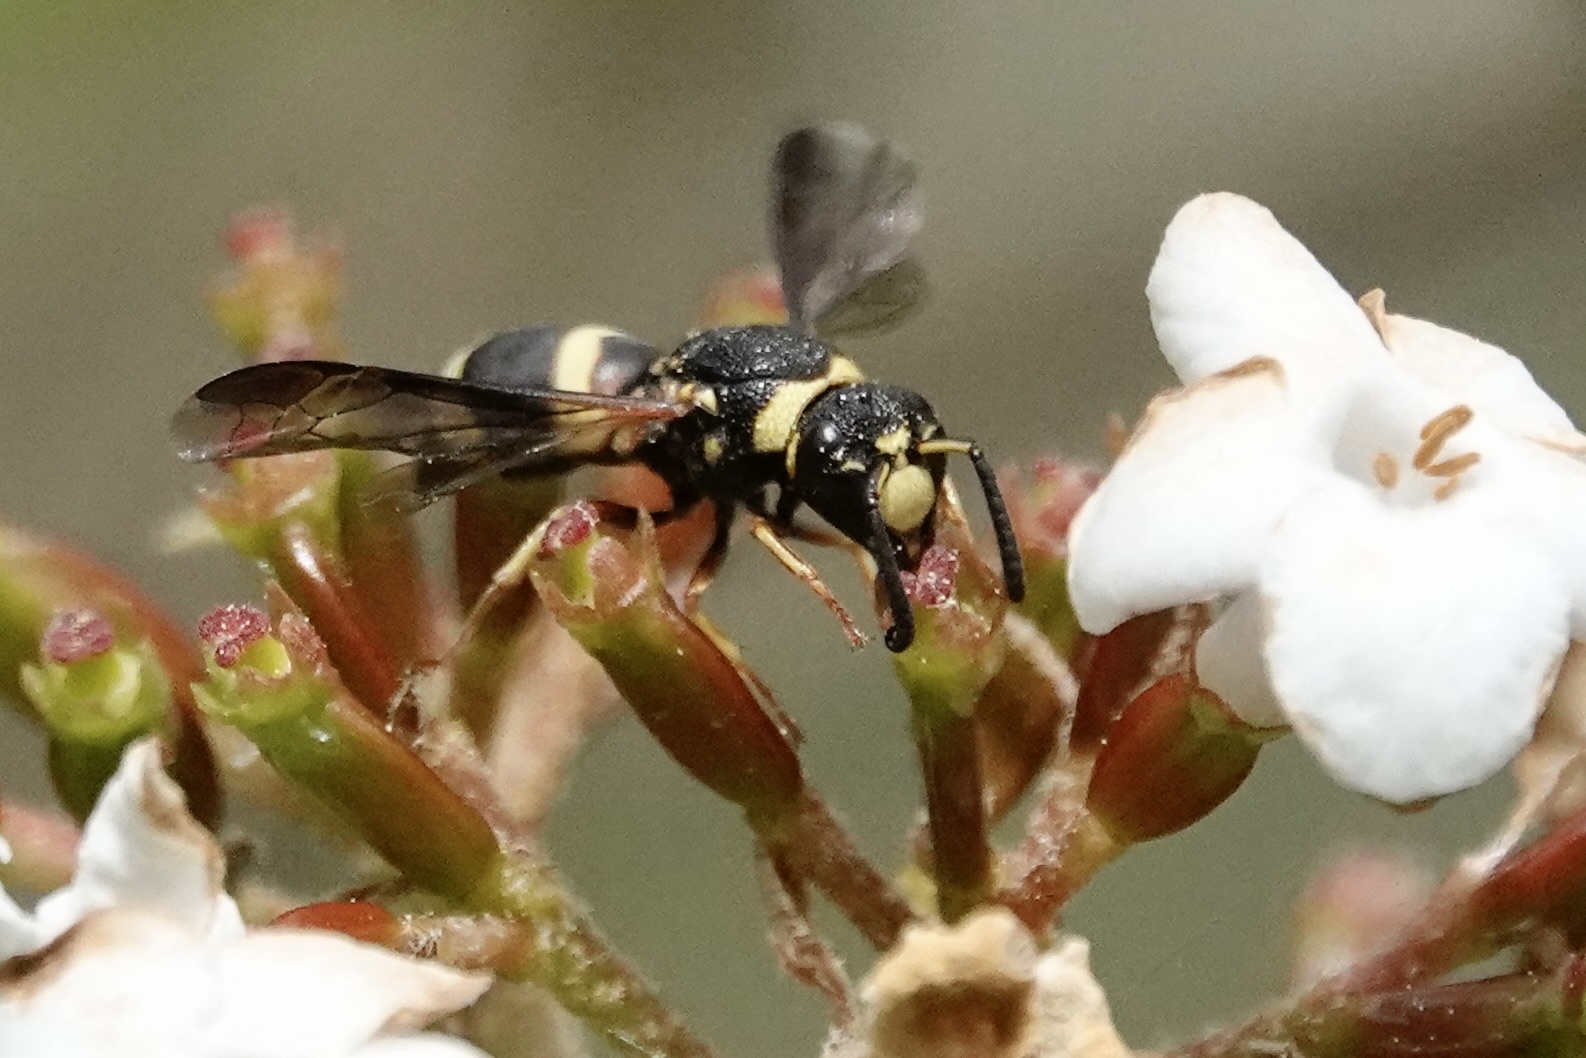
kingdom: Animalia
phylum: Arthropoda
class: Insecta
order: Hymenoptera
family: Eumenidae
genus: Euodynerus
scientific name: Euodynerus hidalgo
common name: Wasp
